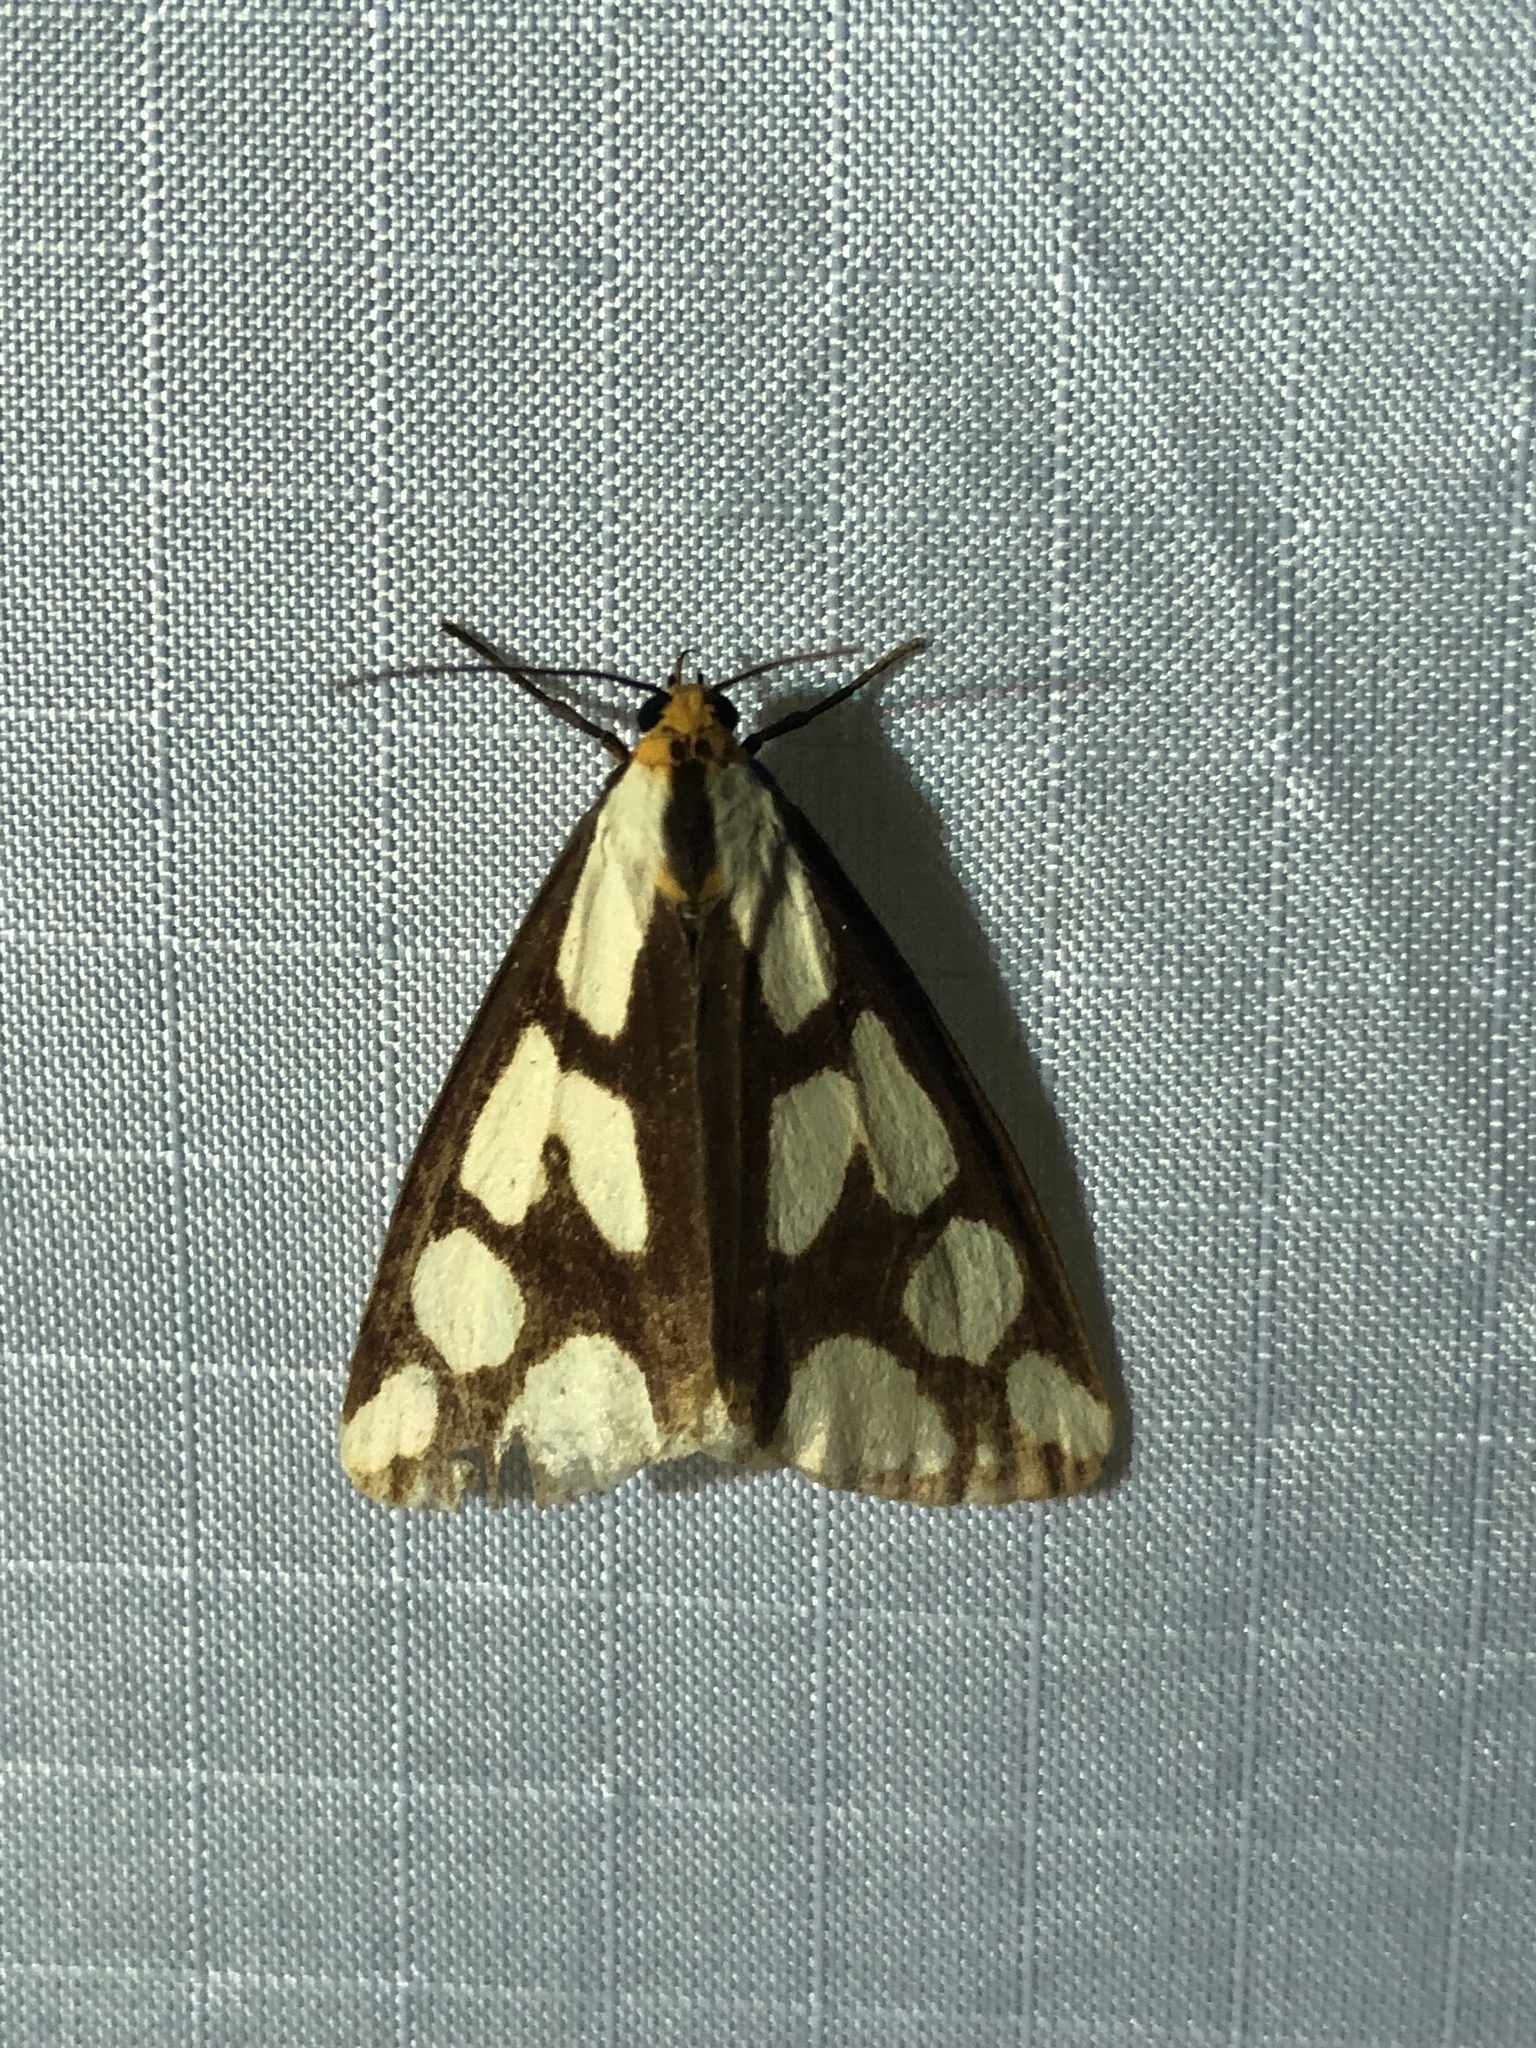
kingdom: Animalia
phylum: Arthropoda
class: Insecta
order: Lepidoptera
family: Erebidae
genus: Haploa
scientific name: Haploa confusa
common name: Confused haploa moth
